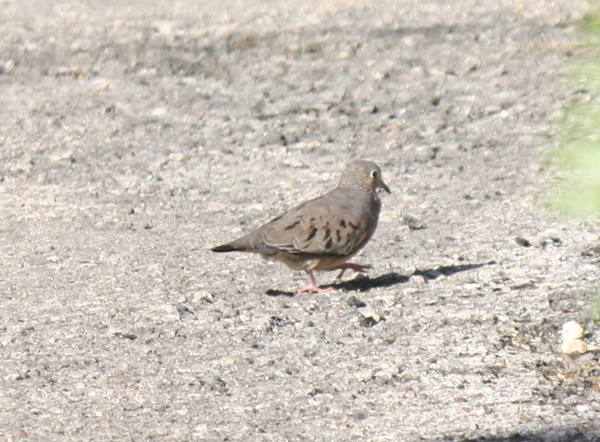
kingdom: Animalia
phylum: Chordata
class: Aves
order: Columbiformes
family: Columbidae
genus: Columbina
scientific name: Columbina passerina
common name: Common ground-dove
